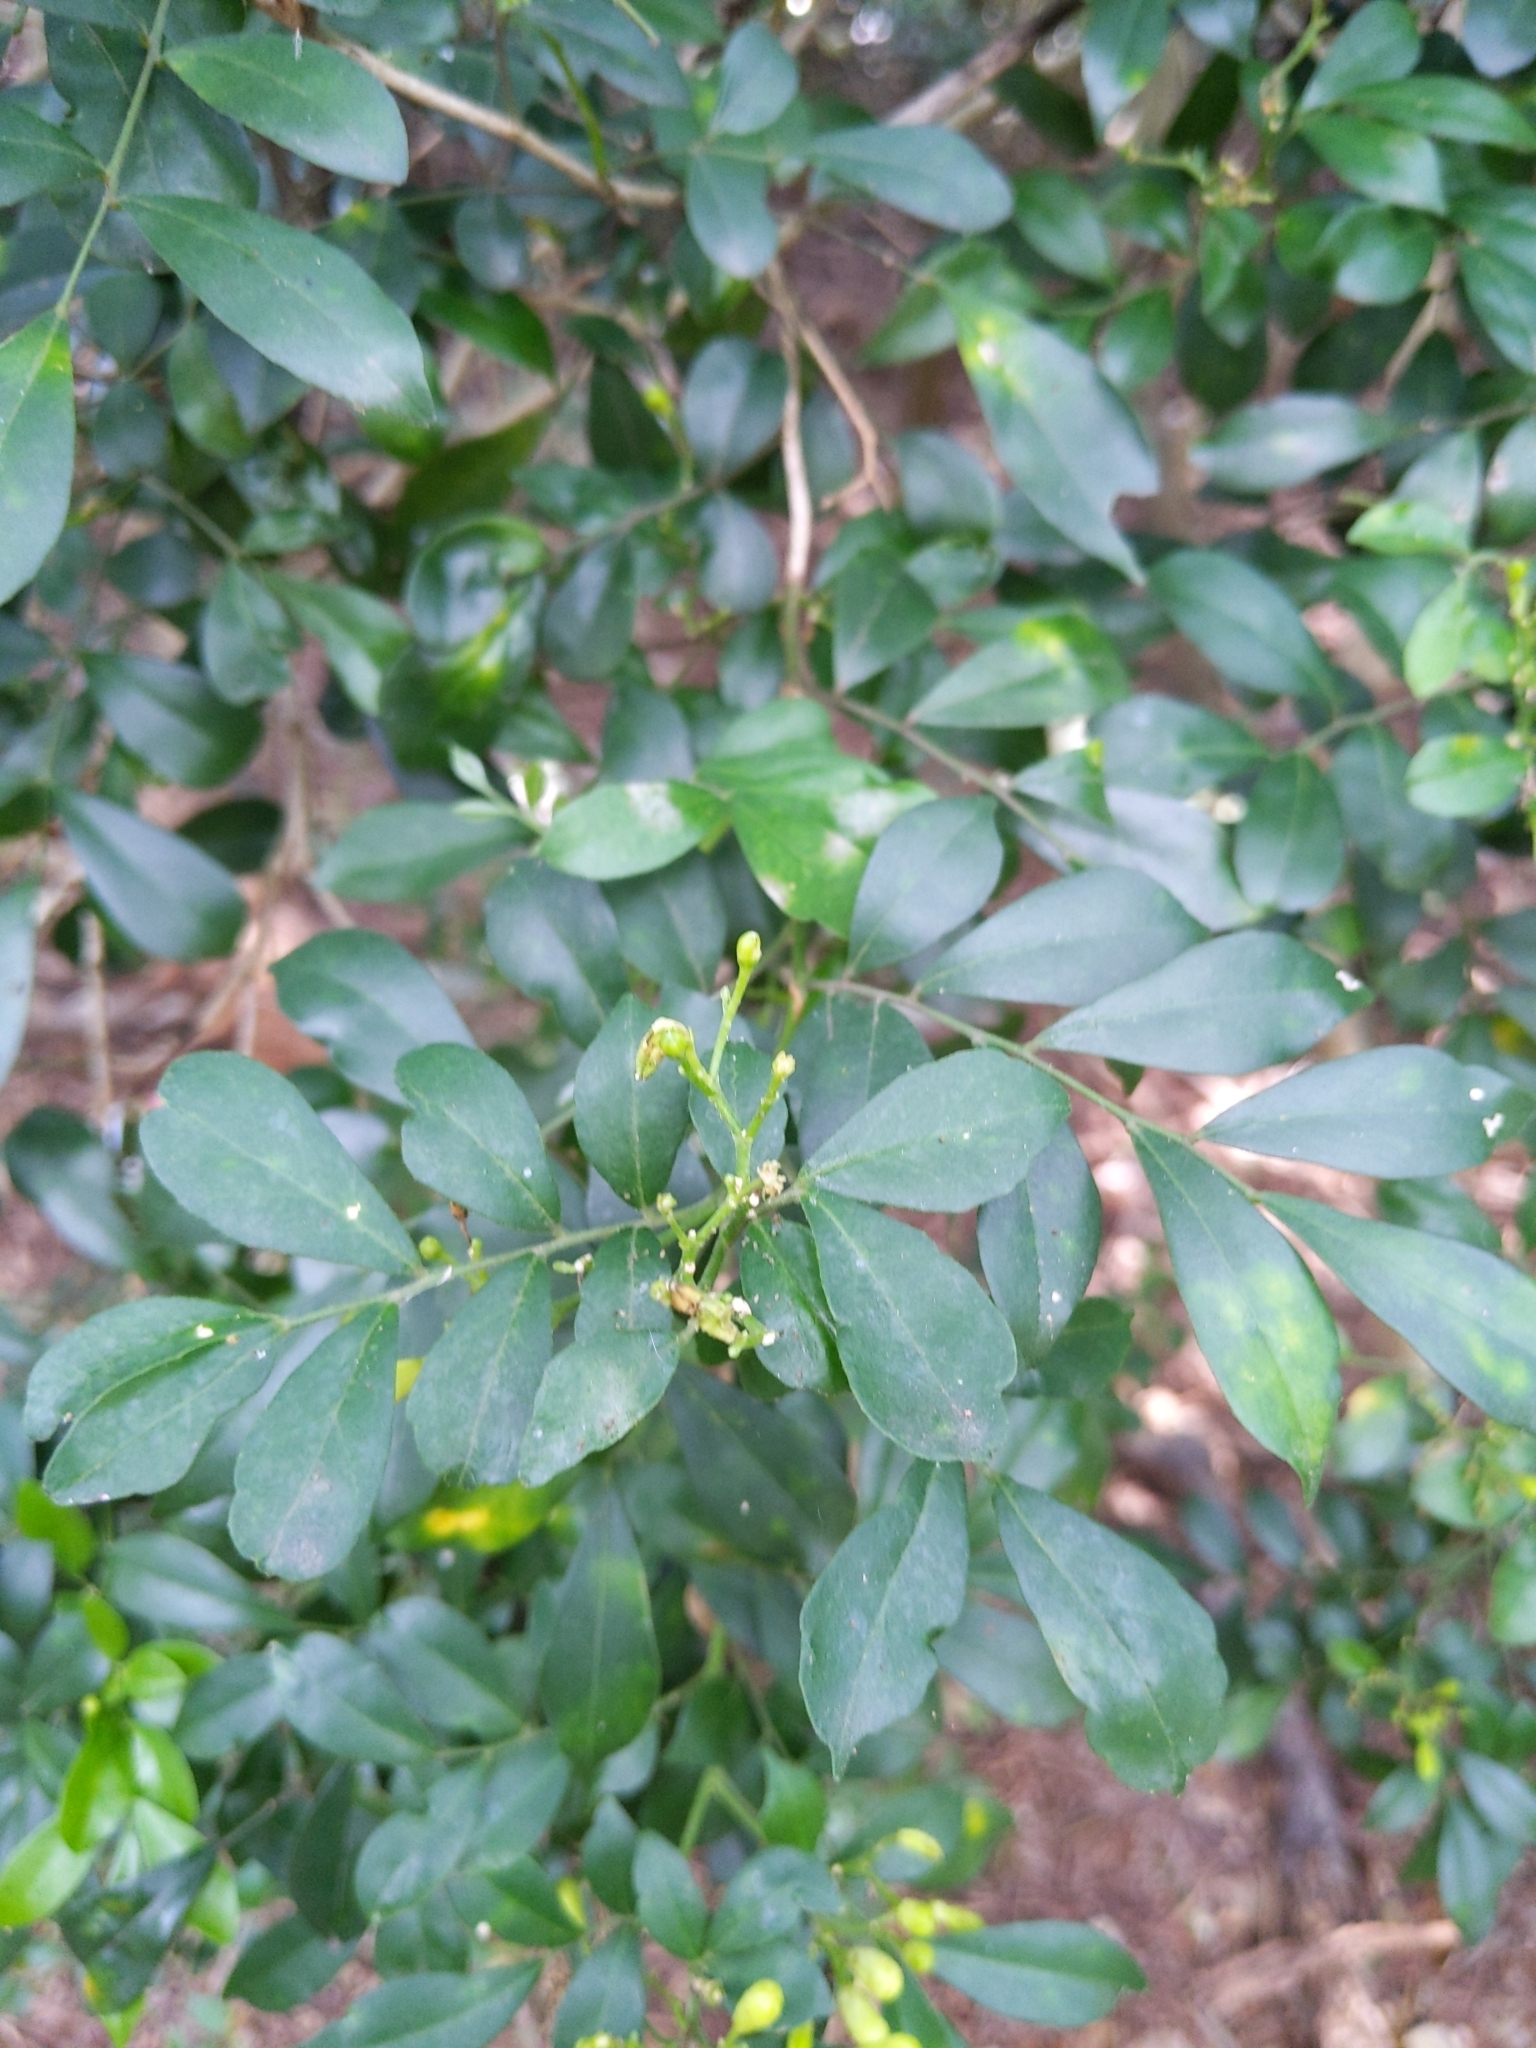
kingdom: Plantae
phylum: Tracheophyta
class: Magnoliopsida
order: Sapindales
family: Rutaceae
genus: Murraya
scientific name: Murraya paniculata
